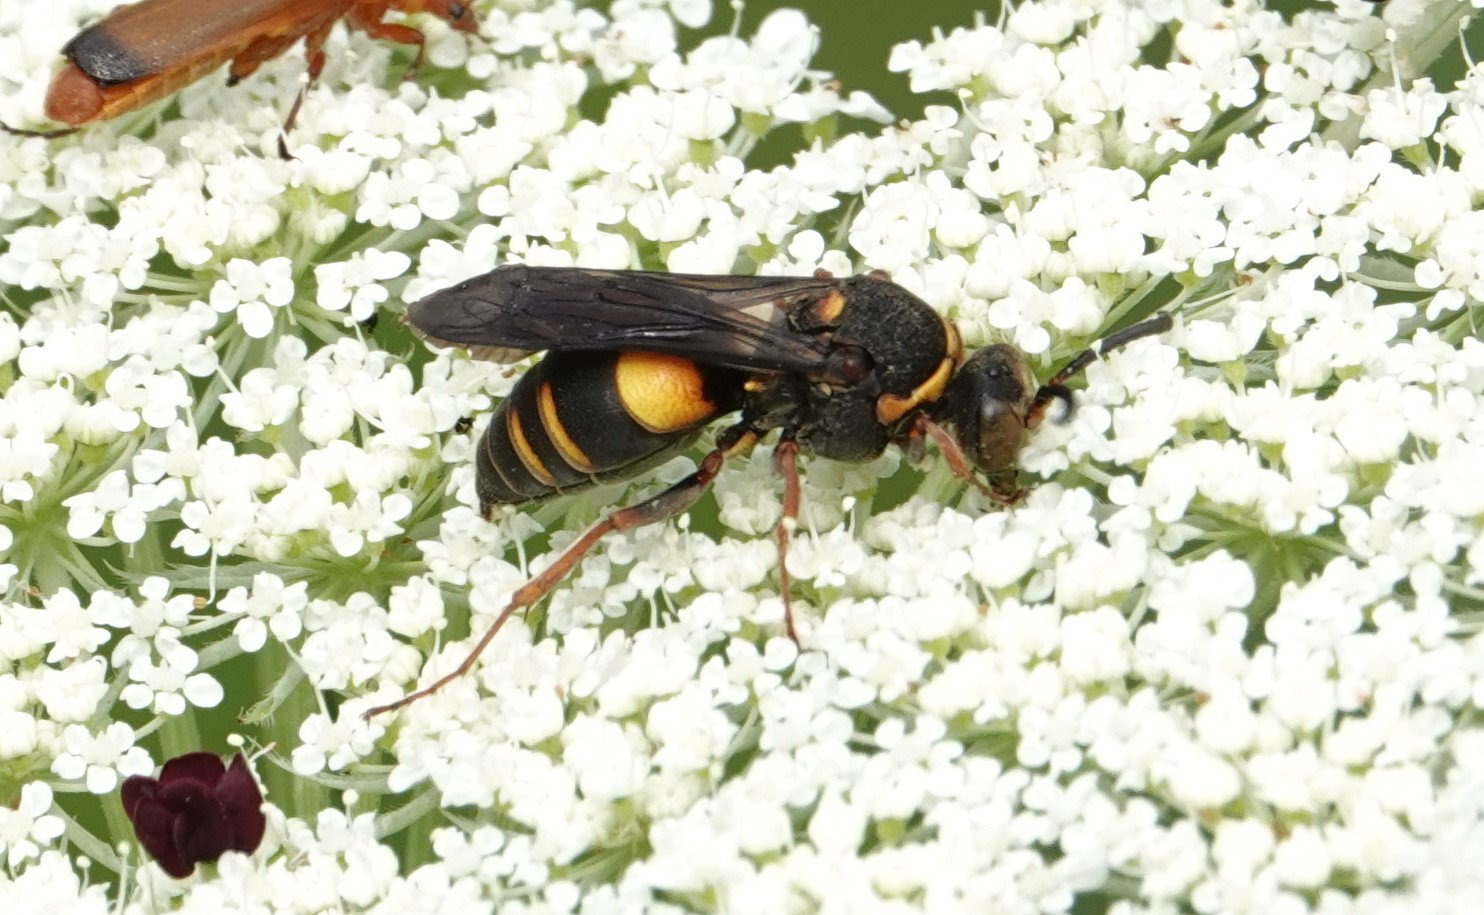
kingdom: Animalia
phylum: Arthropoda
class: Insecta
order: Hymenoptera
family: Crabronidae
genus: Nysson
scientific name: Nysson plagiatus
